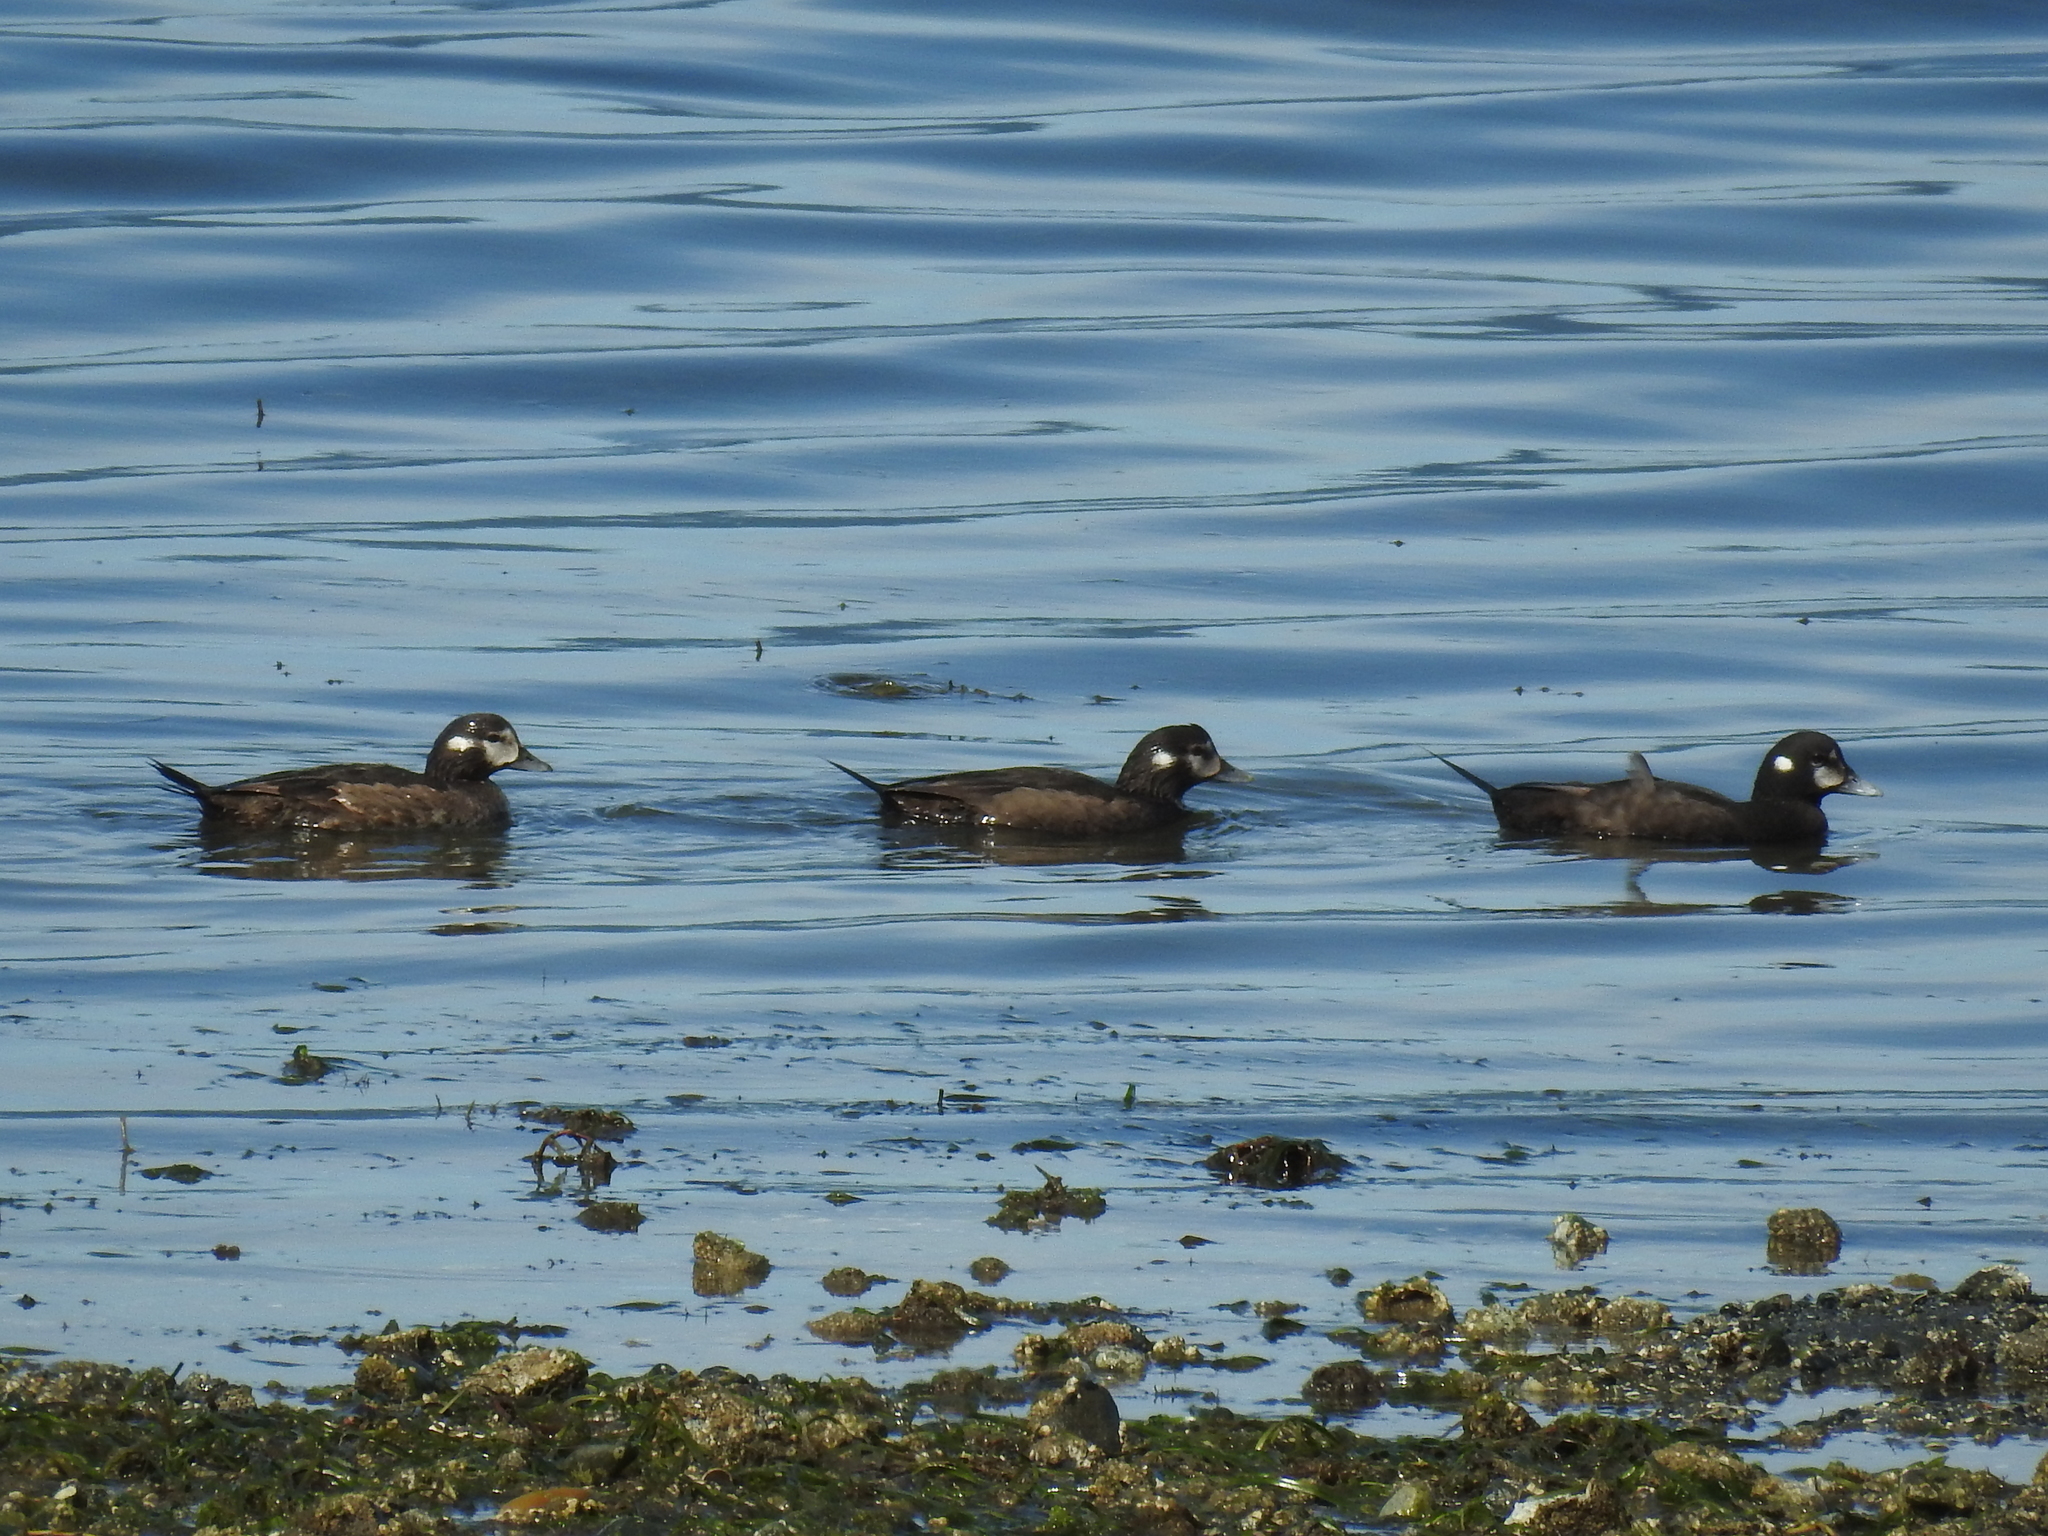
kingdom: Animalia
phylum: Chordata
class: Aves
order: Anseriformes
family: Anatidae
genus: Histrionicus
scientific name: Histrionicus histrionicus
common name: Harlequin duck
